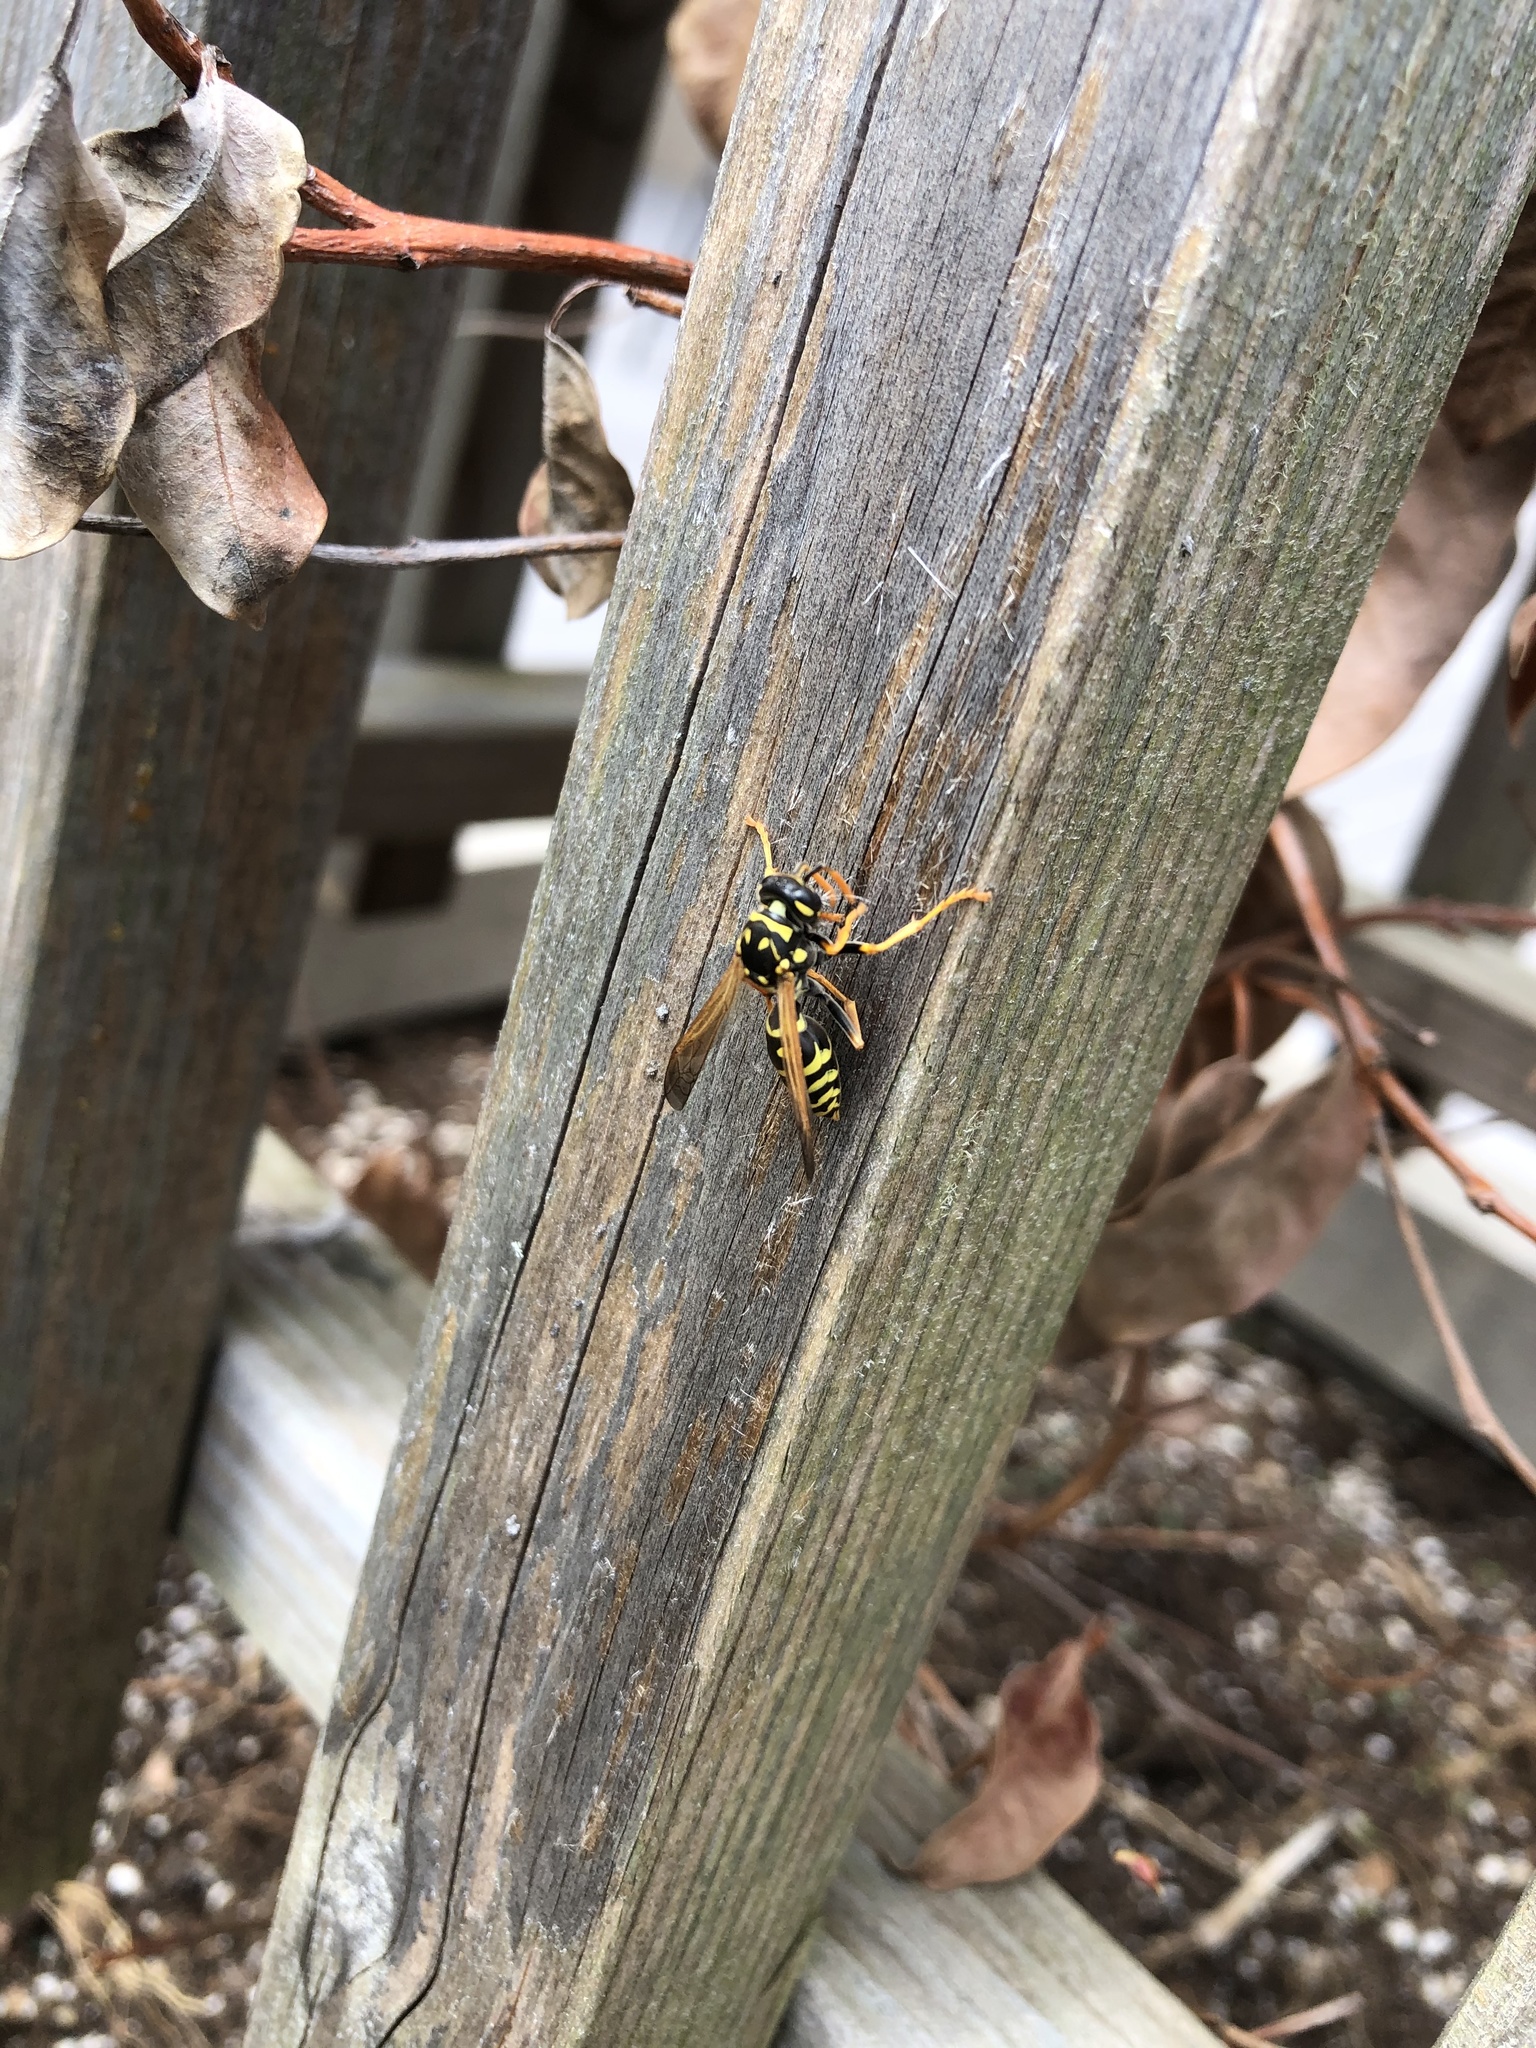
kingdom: Animalia
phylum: Arthropoda
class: Insecta
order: Hymenoptera
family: Eumenidae
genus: Polistes
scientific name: Polistes dominula
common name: Paper wasp
